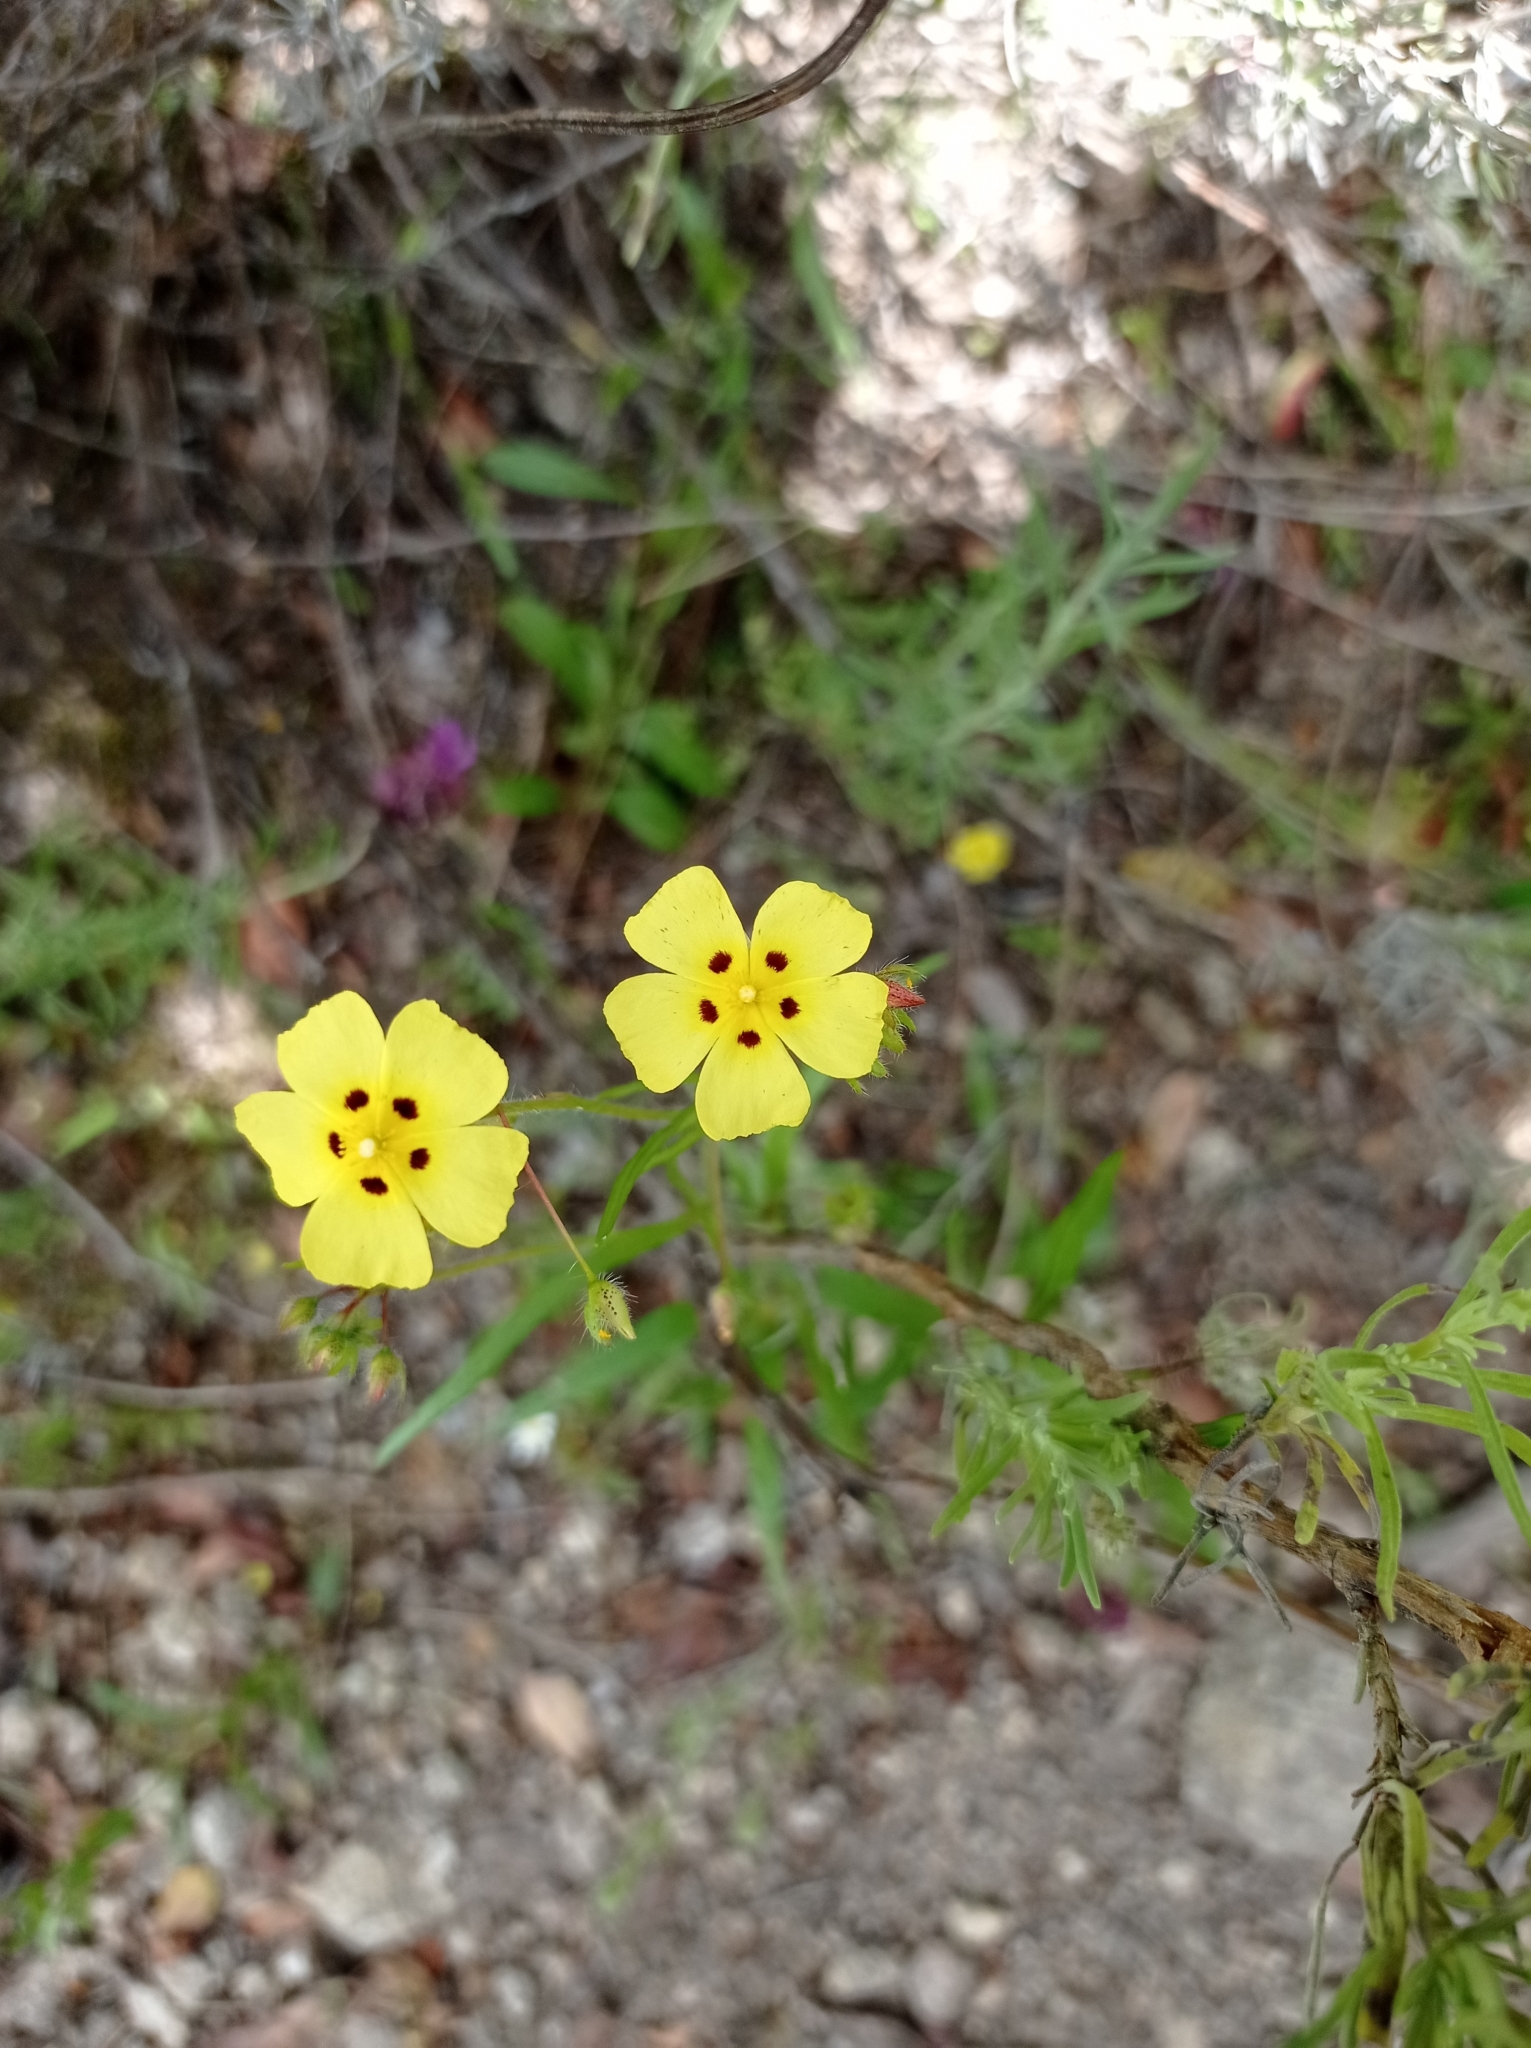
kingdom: Plantae
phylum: Tracheophyta
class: Magnoliopsida
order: Malvales
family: Cistaceae
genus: Tuberaria
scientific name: Tuberaria guttata
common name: Spotted rock-rose
